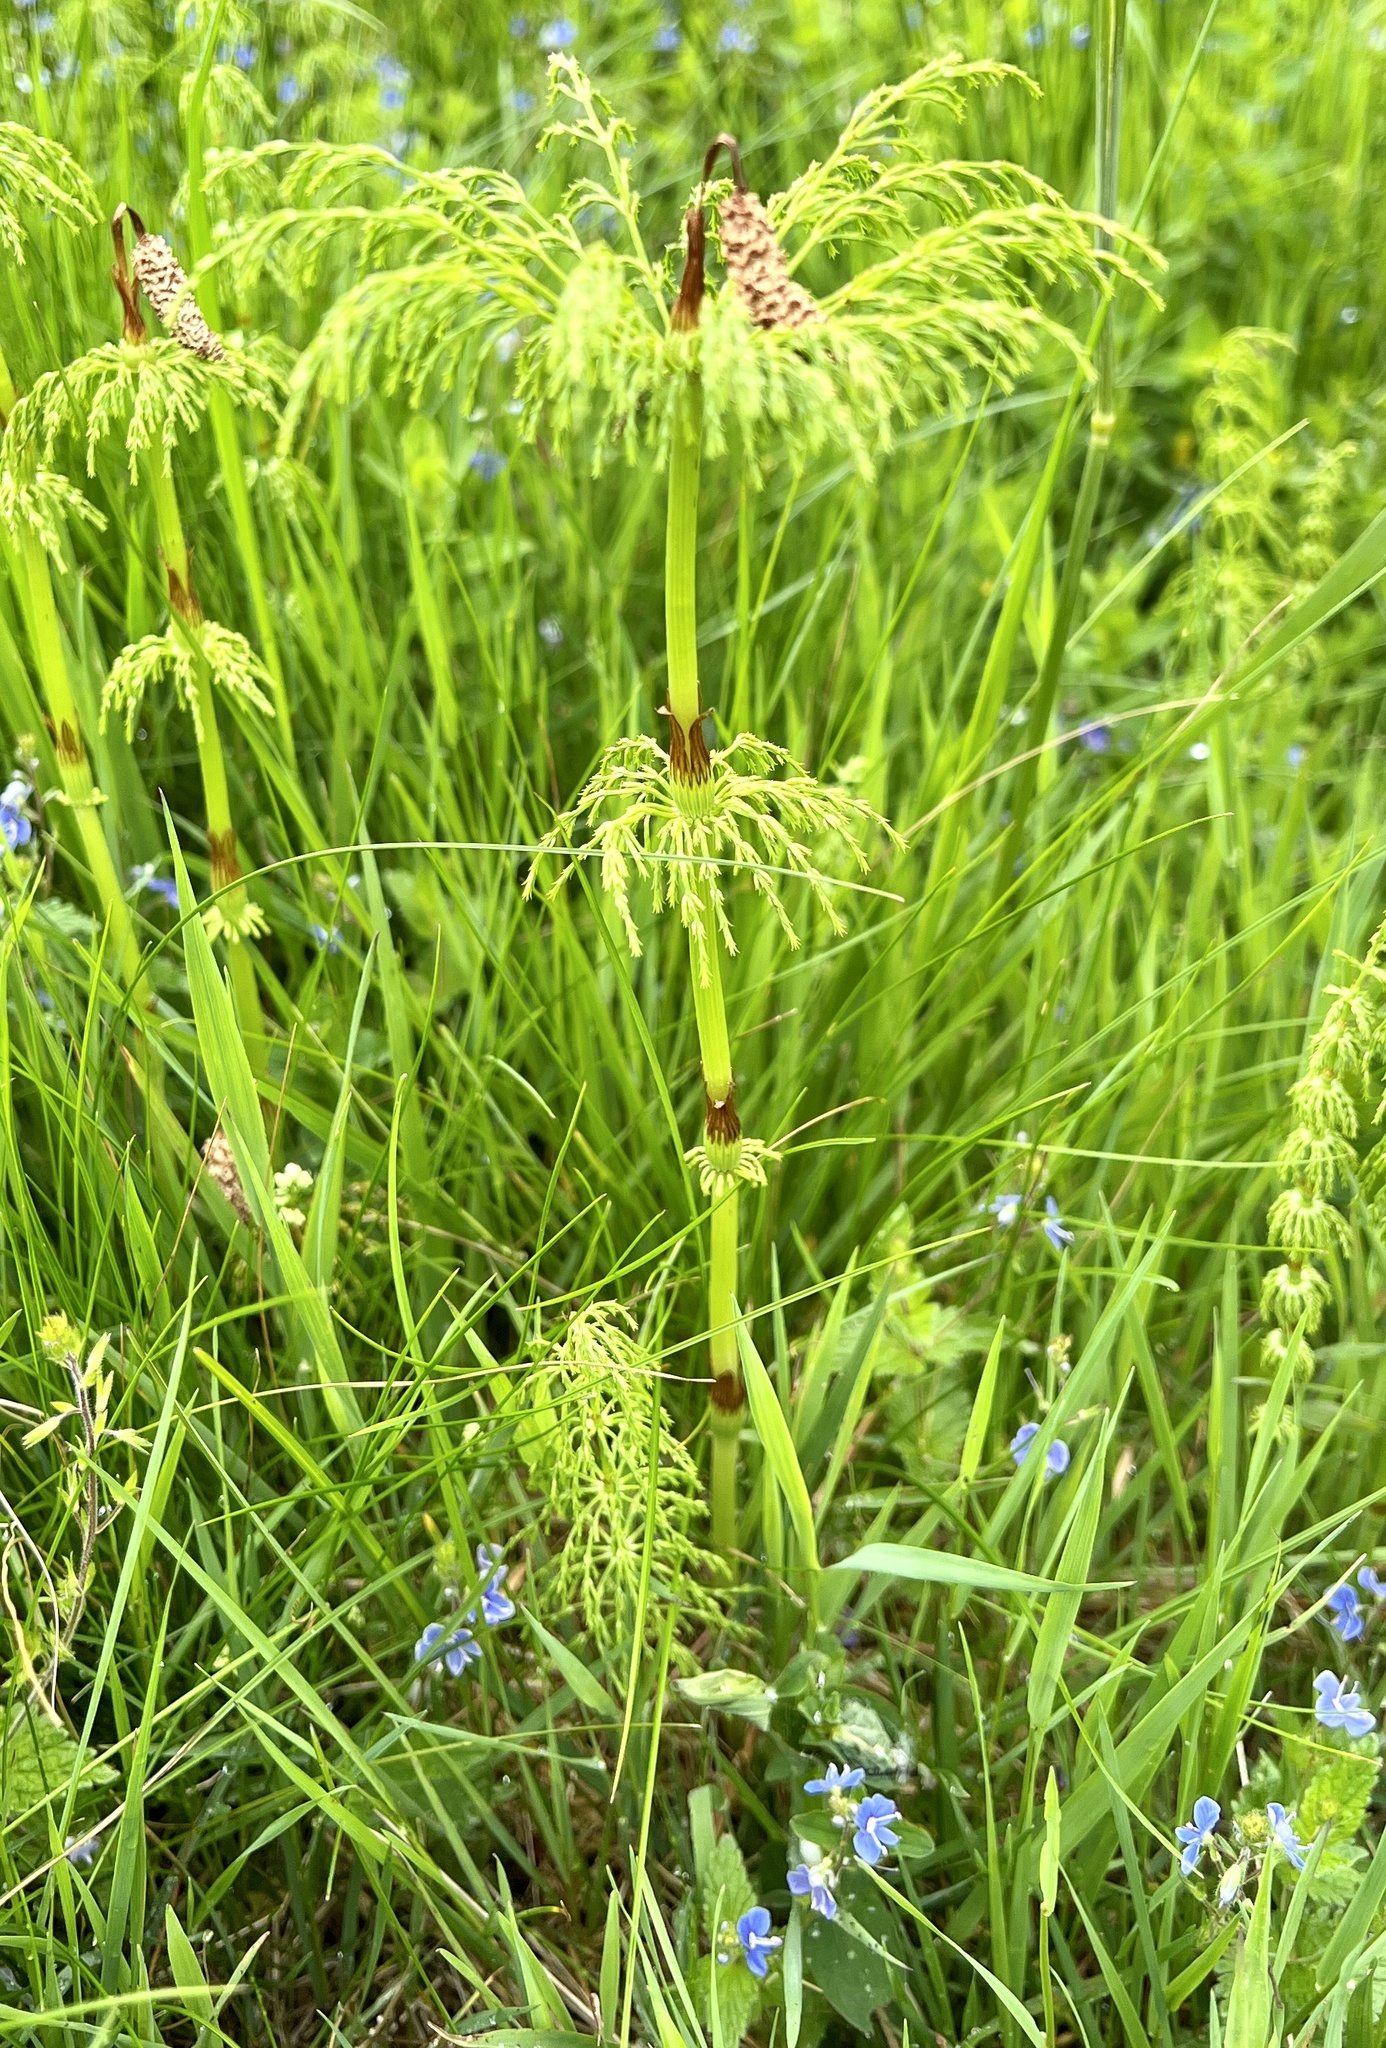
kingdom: Plantae
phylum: Tracheophyta
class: Polypodiopsida
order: Equisetales
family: Equisetaceae
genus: Equisetum
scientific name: Equisetum sylvaticum
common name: Wood horsetail
